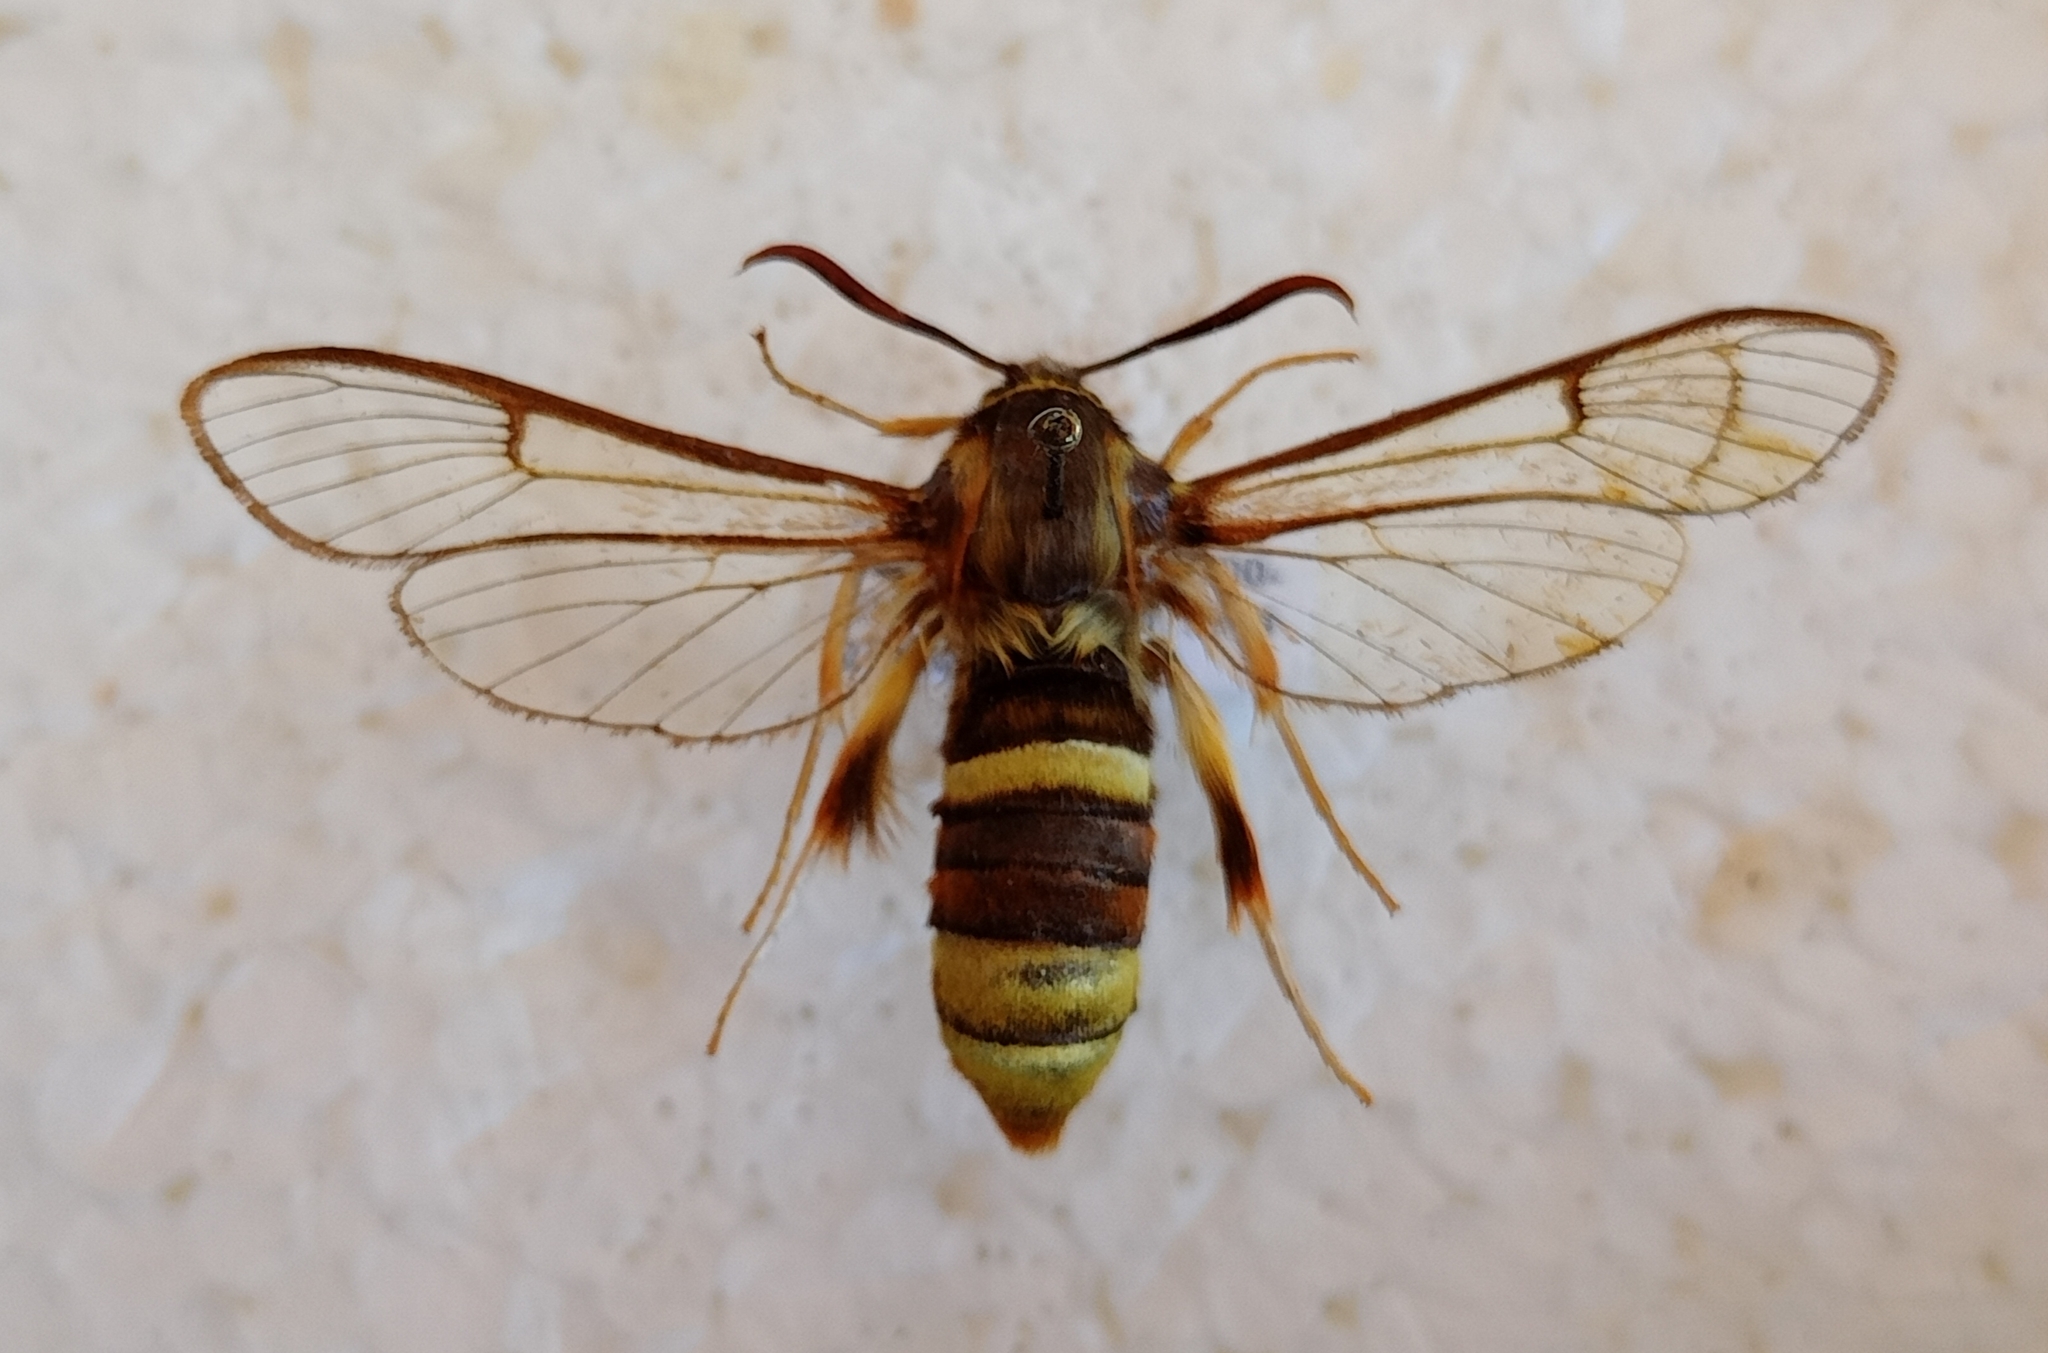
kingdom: Animalia
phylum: Arthropoda
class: Insecta
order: Lepidoptera
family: Sesiidae
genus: Sesia
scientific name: Sesia siningensis
